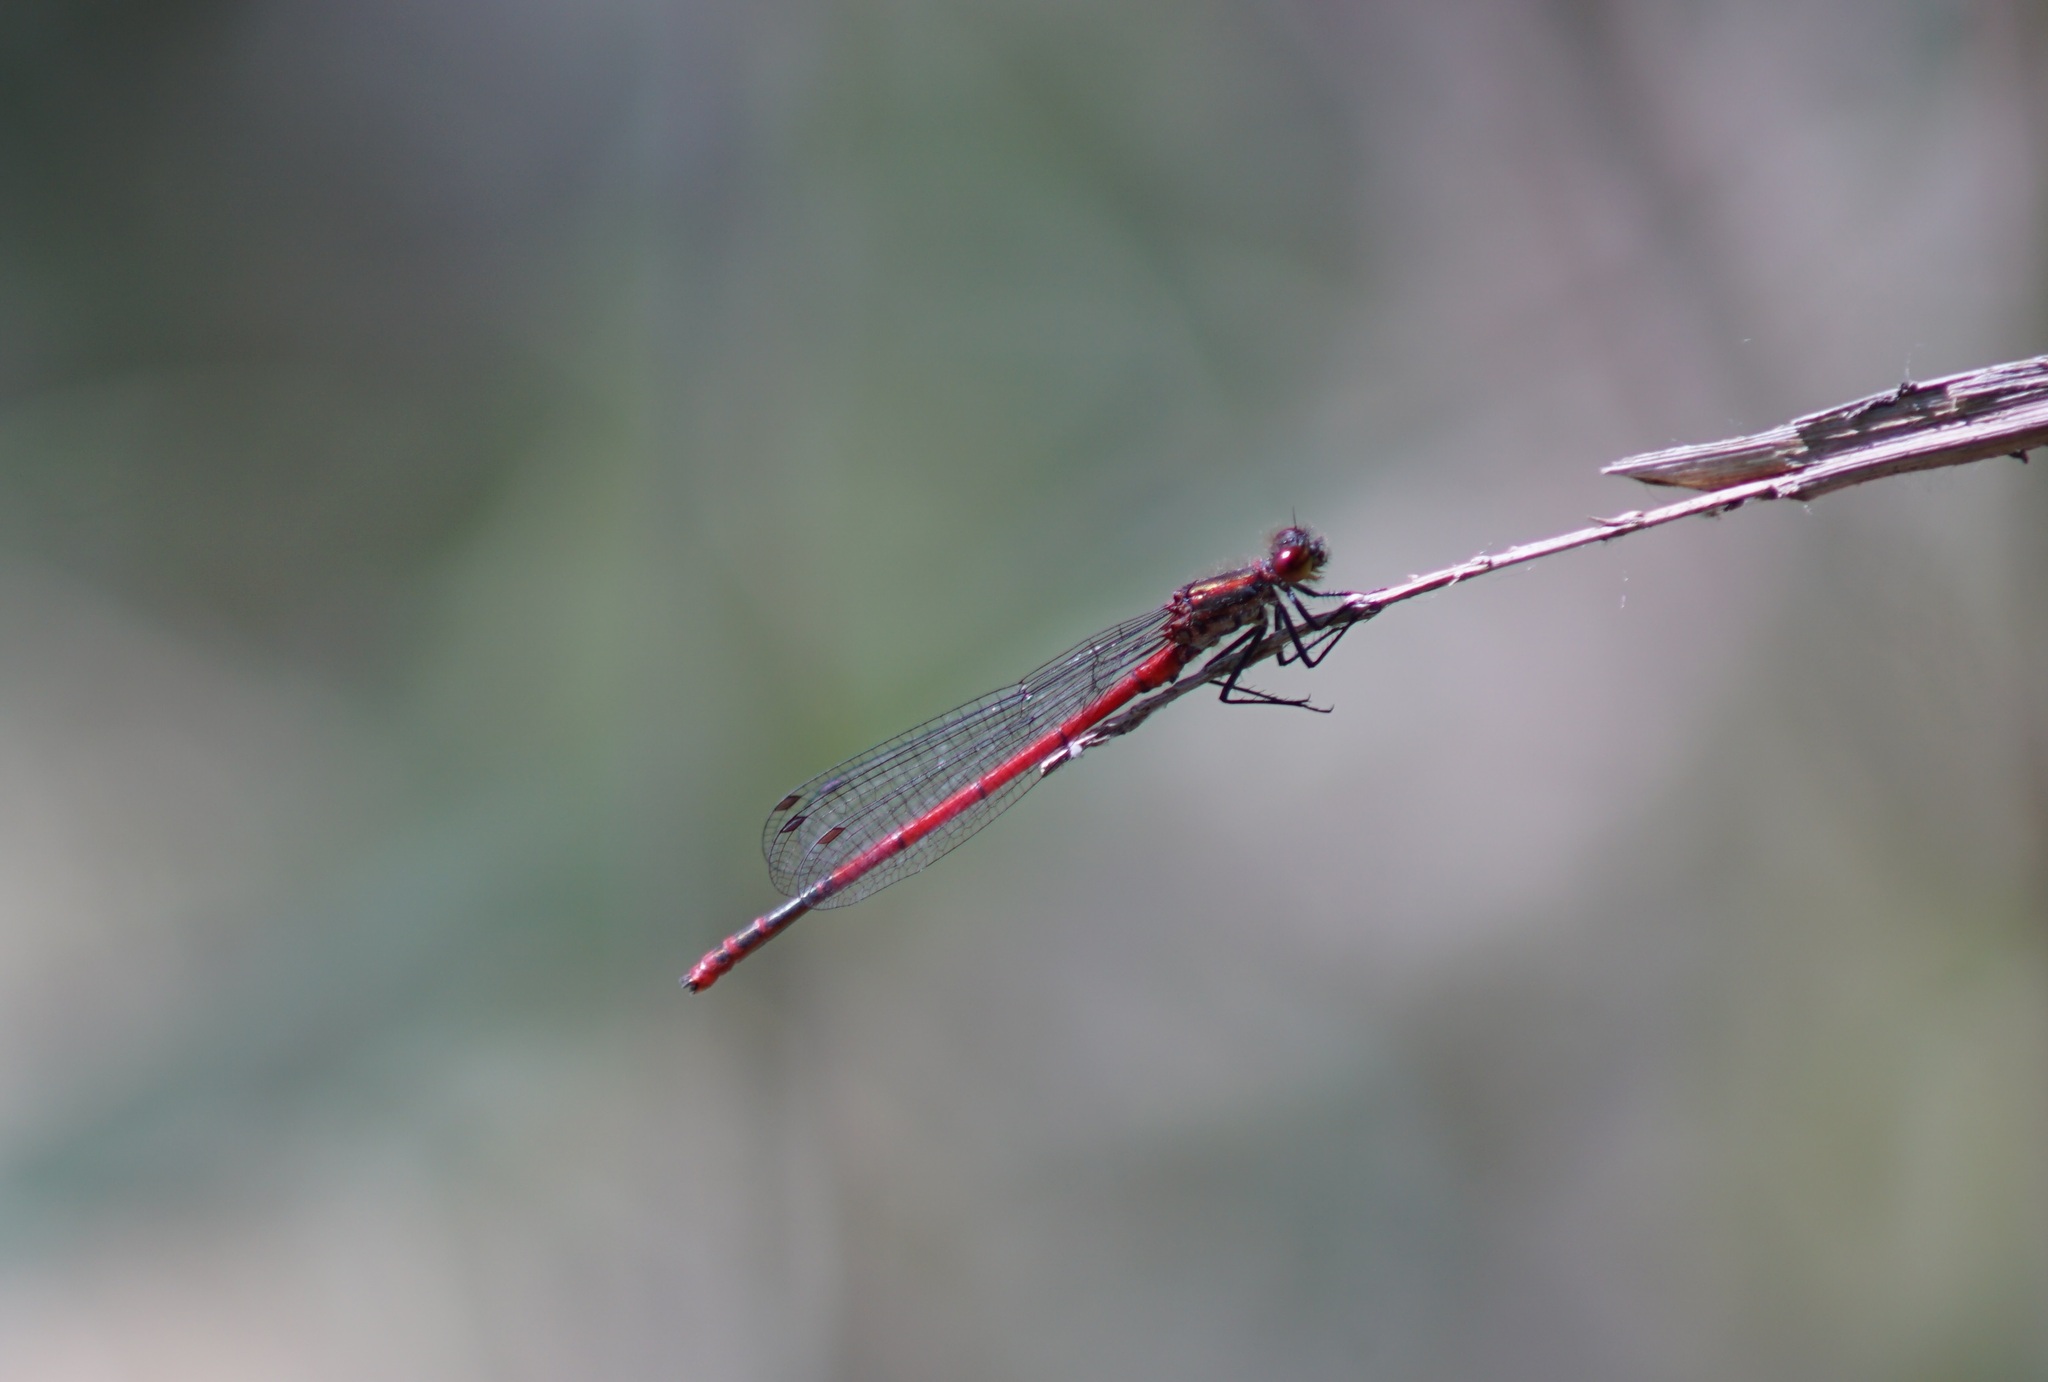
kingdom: Animalia
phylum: Arthropoda
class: Insecta
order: Odonata
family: Coenagrionidae
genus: Pyrrhosoma
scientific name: Pyrrhosoma nymphula
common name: Large red damsel
